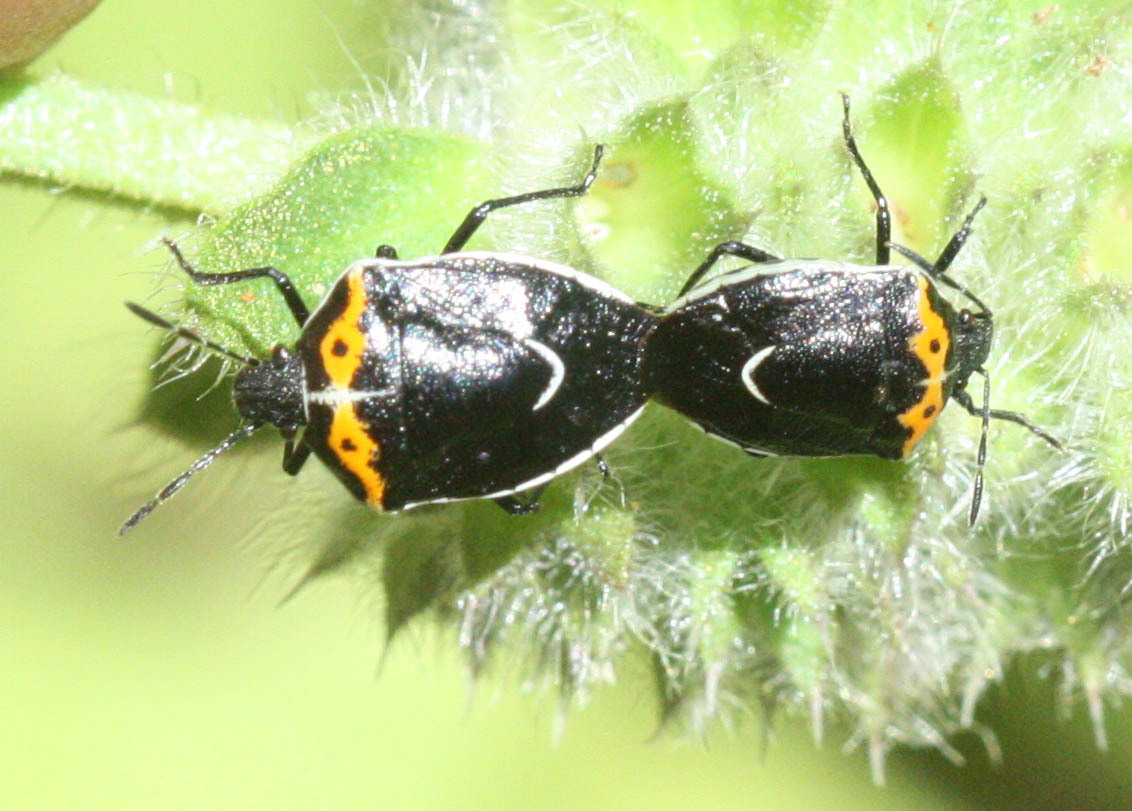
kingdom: Animalia
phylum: Arthropoda
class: Insecta
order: Hemiptera
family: Pentatomidae
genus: Cosmopepla
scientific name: Cosmopepla conspicillaris
